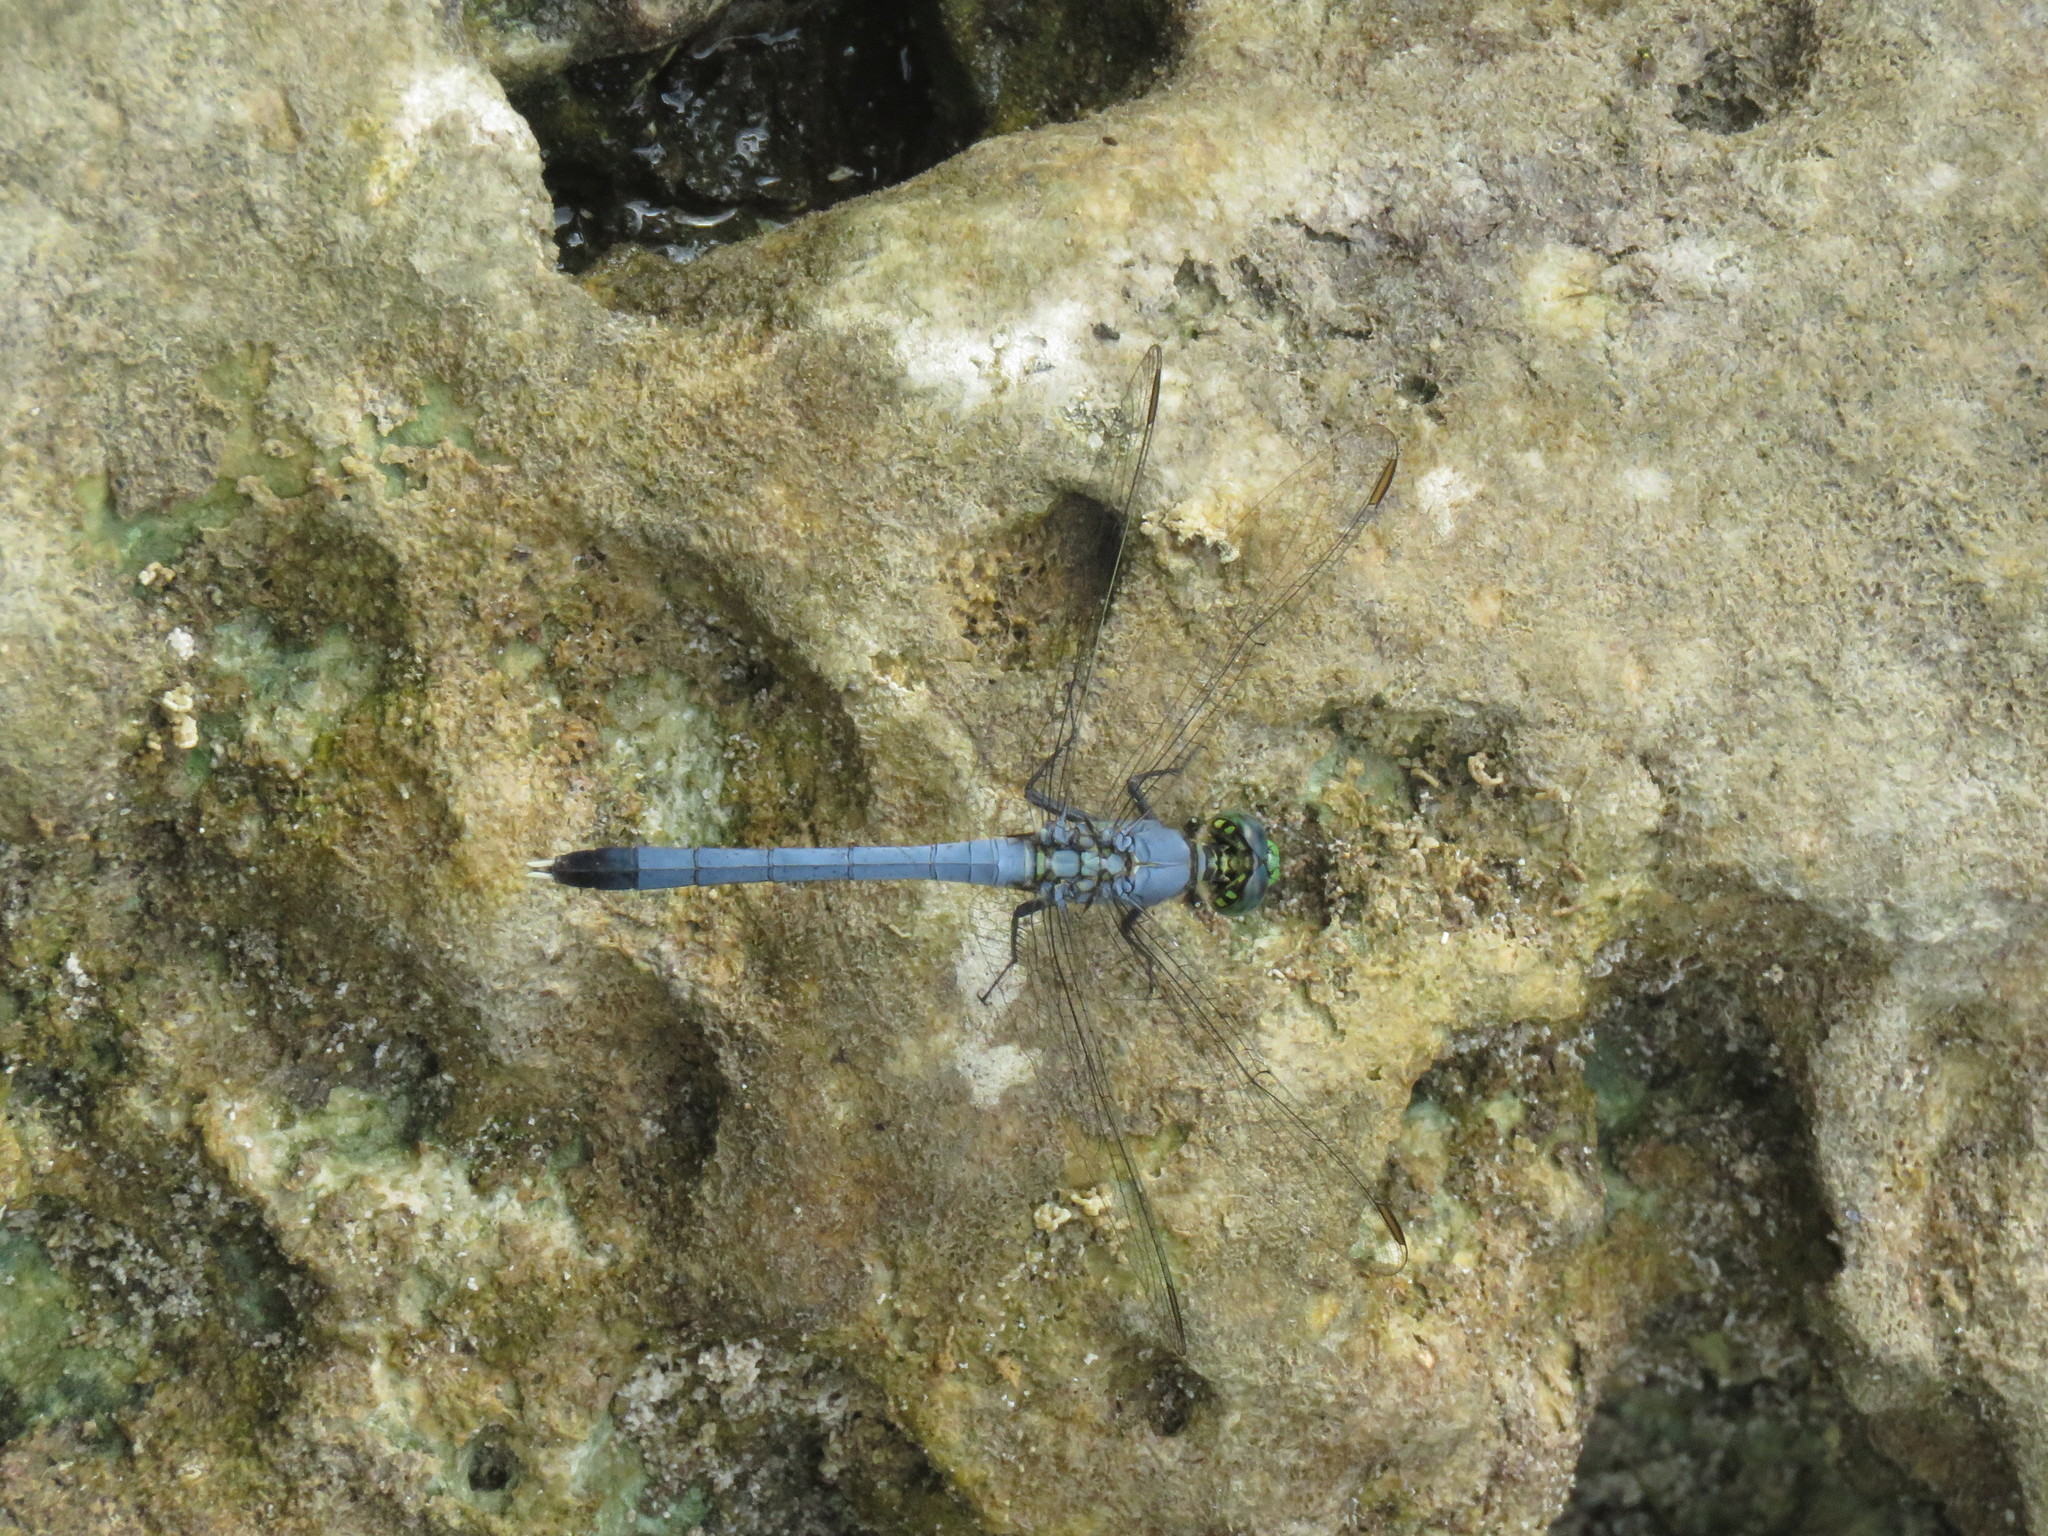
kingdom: Animalia
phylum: Arthropoda
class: Insecta
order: Odonata
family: Libellulidae
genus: Erythemis
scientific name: Erythemis simplicicollis
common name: Eastern pondhawk
